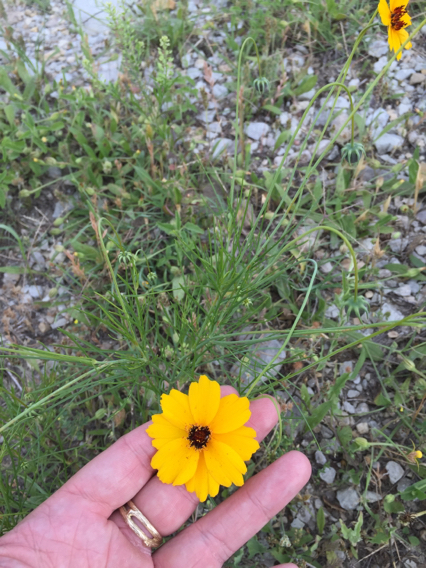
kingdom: Plantae
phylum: Tracheophyta
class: Magnoliopsida
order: Asterales
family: Asteraceae
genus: Thelesperma
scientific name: Thelesperma filifolium
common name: Stiff greenthread
